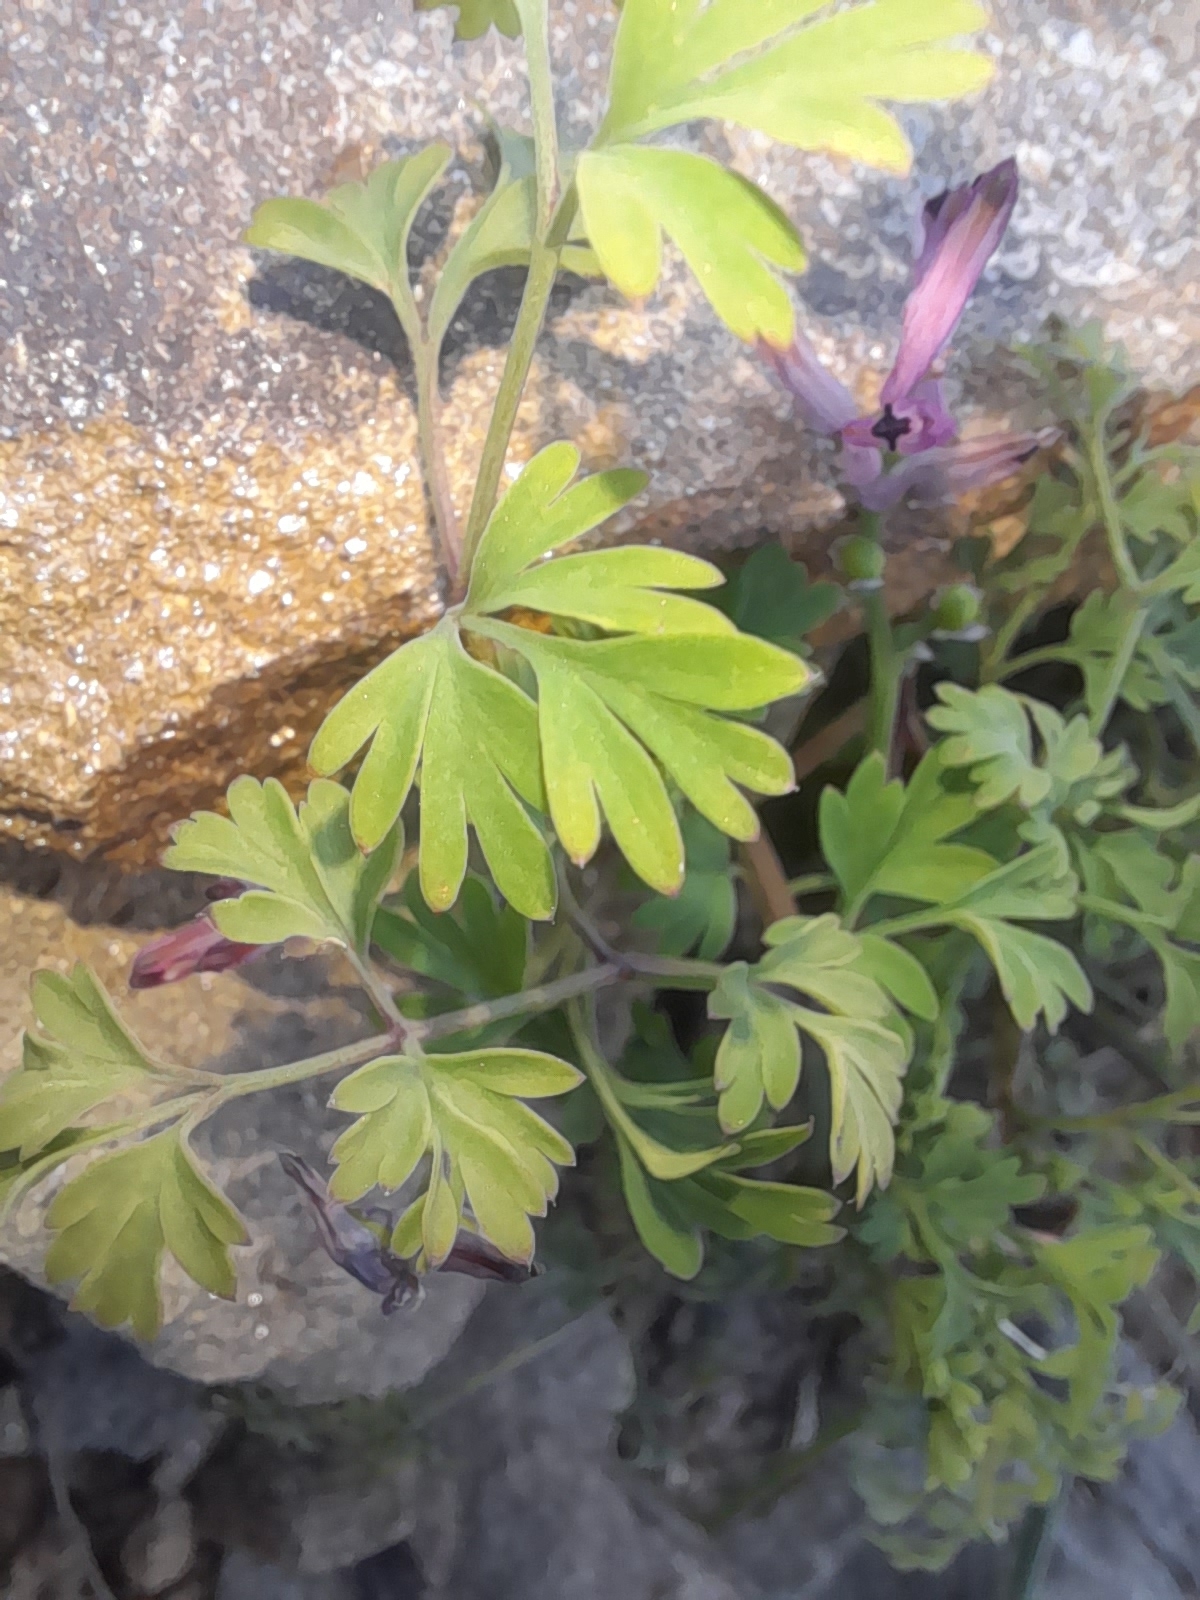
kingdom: Plantae
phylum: Tracheophyta
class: Magnoliopsida
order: Ranunculales
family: Papaveraceae
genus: Fumaria
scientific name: Fumaria bastardii
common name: Tall ramping-fumitory
